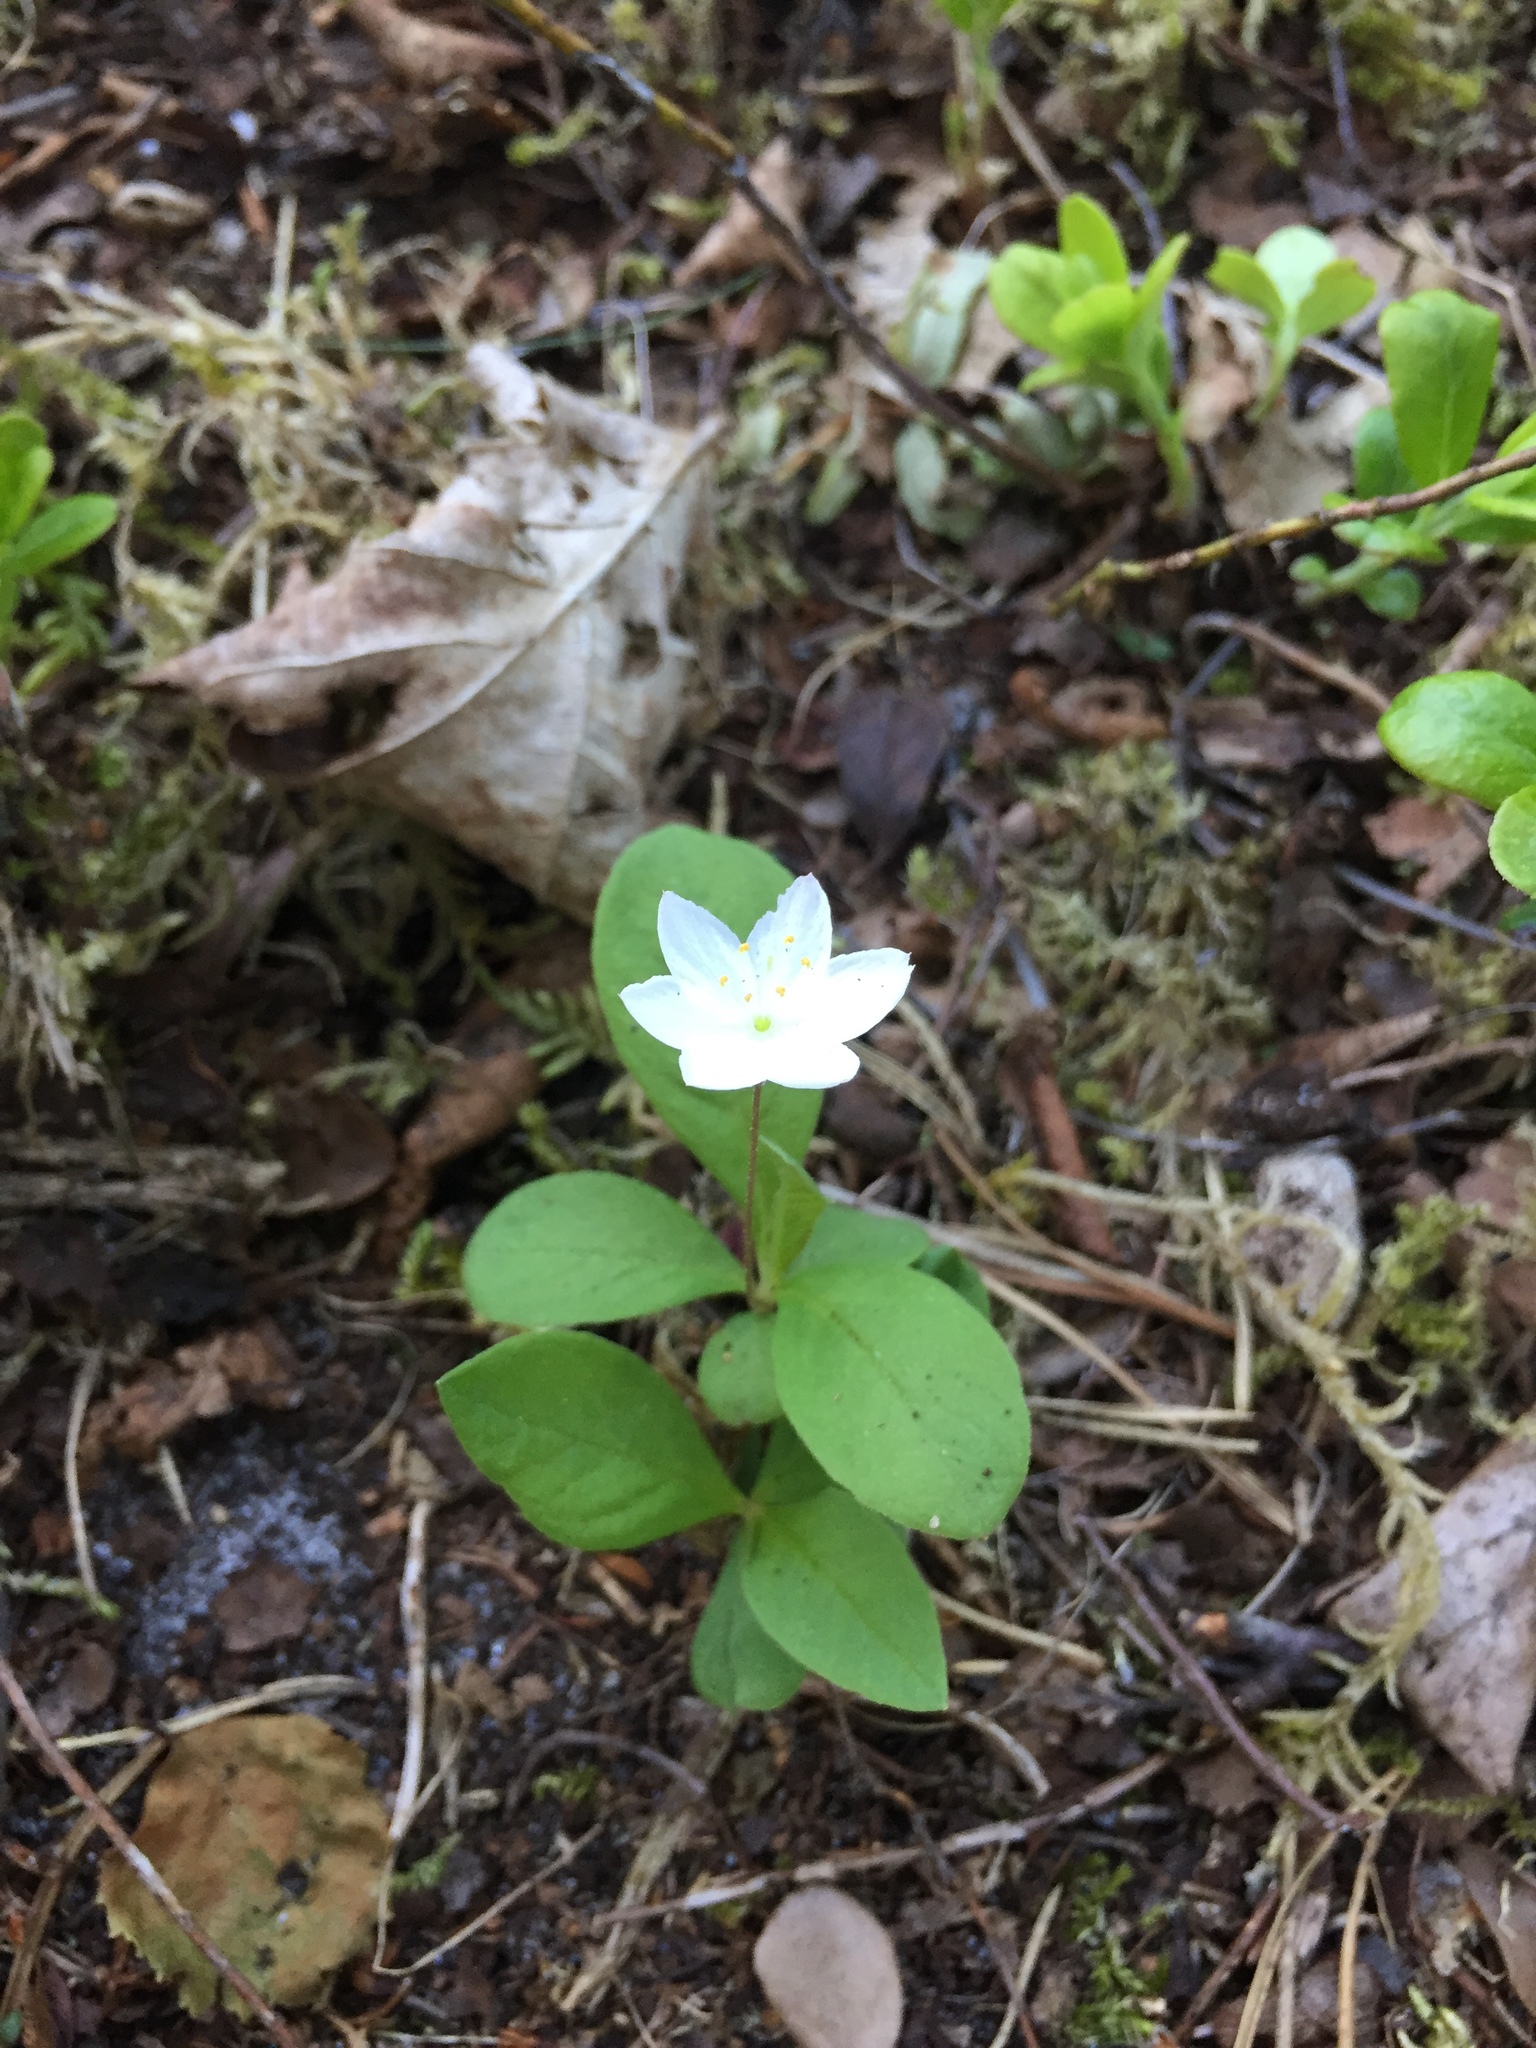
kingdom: Plantae
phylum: Tracheophyta
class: Magnoliopsida
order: Ericales
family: Primulaceae
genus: Lysimachia
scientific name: Lysimachia europaea
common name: Arctic starflower
